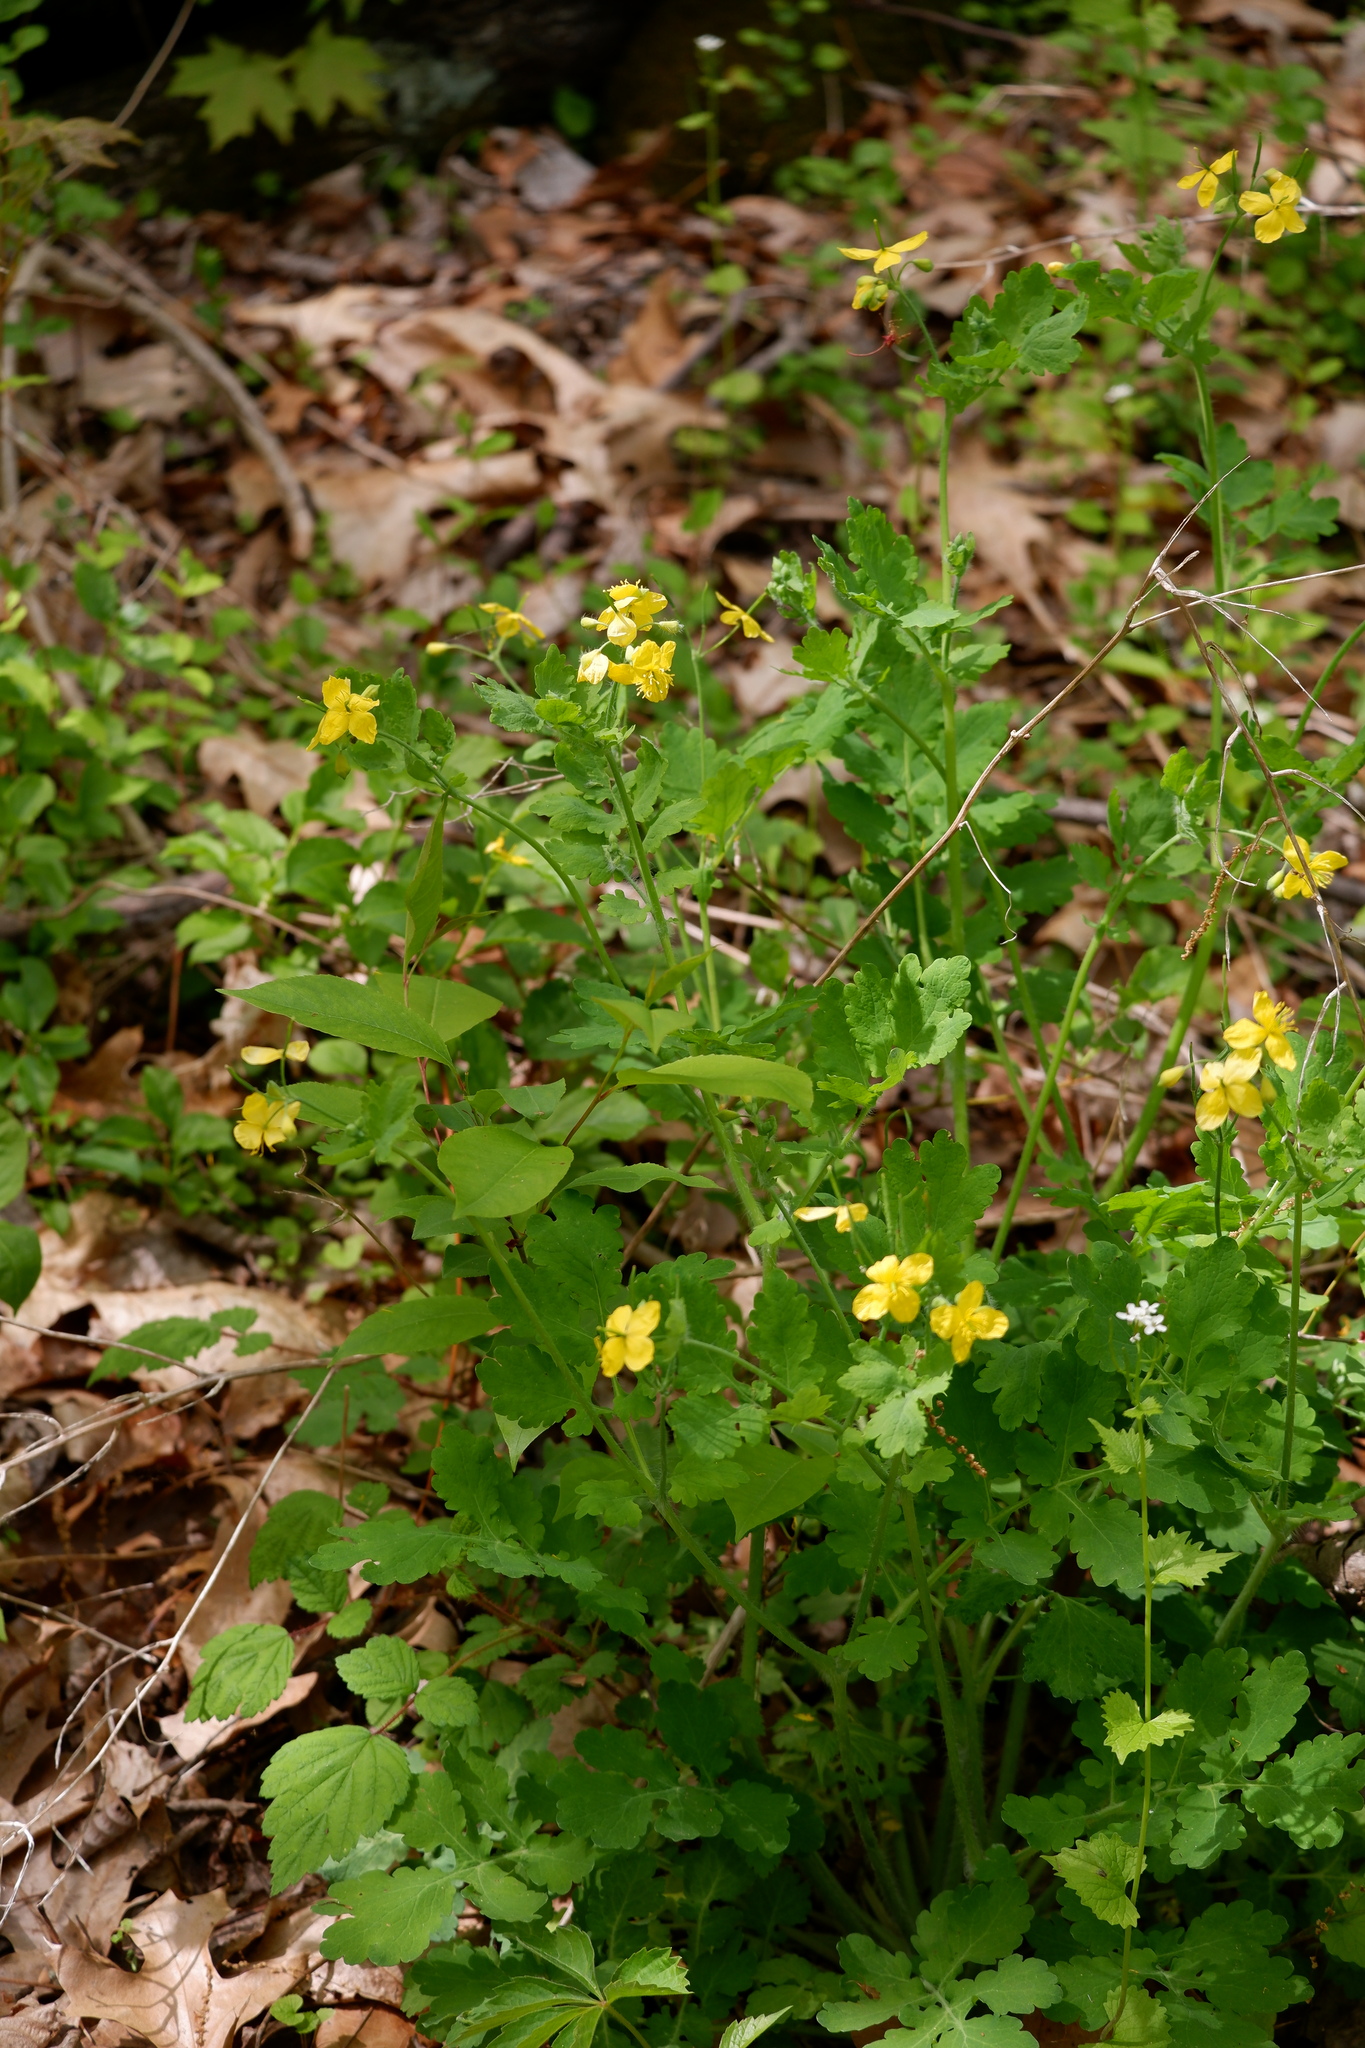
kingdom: Plantae
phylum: Tracheophyta
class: Magnoliopsida
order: Ranunculales
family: Papaveraceae
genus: Chelidonium
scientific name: Chelidonium majus
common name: Greater celandine
